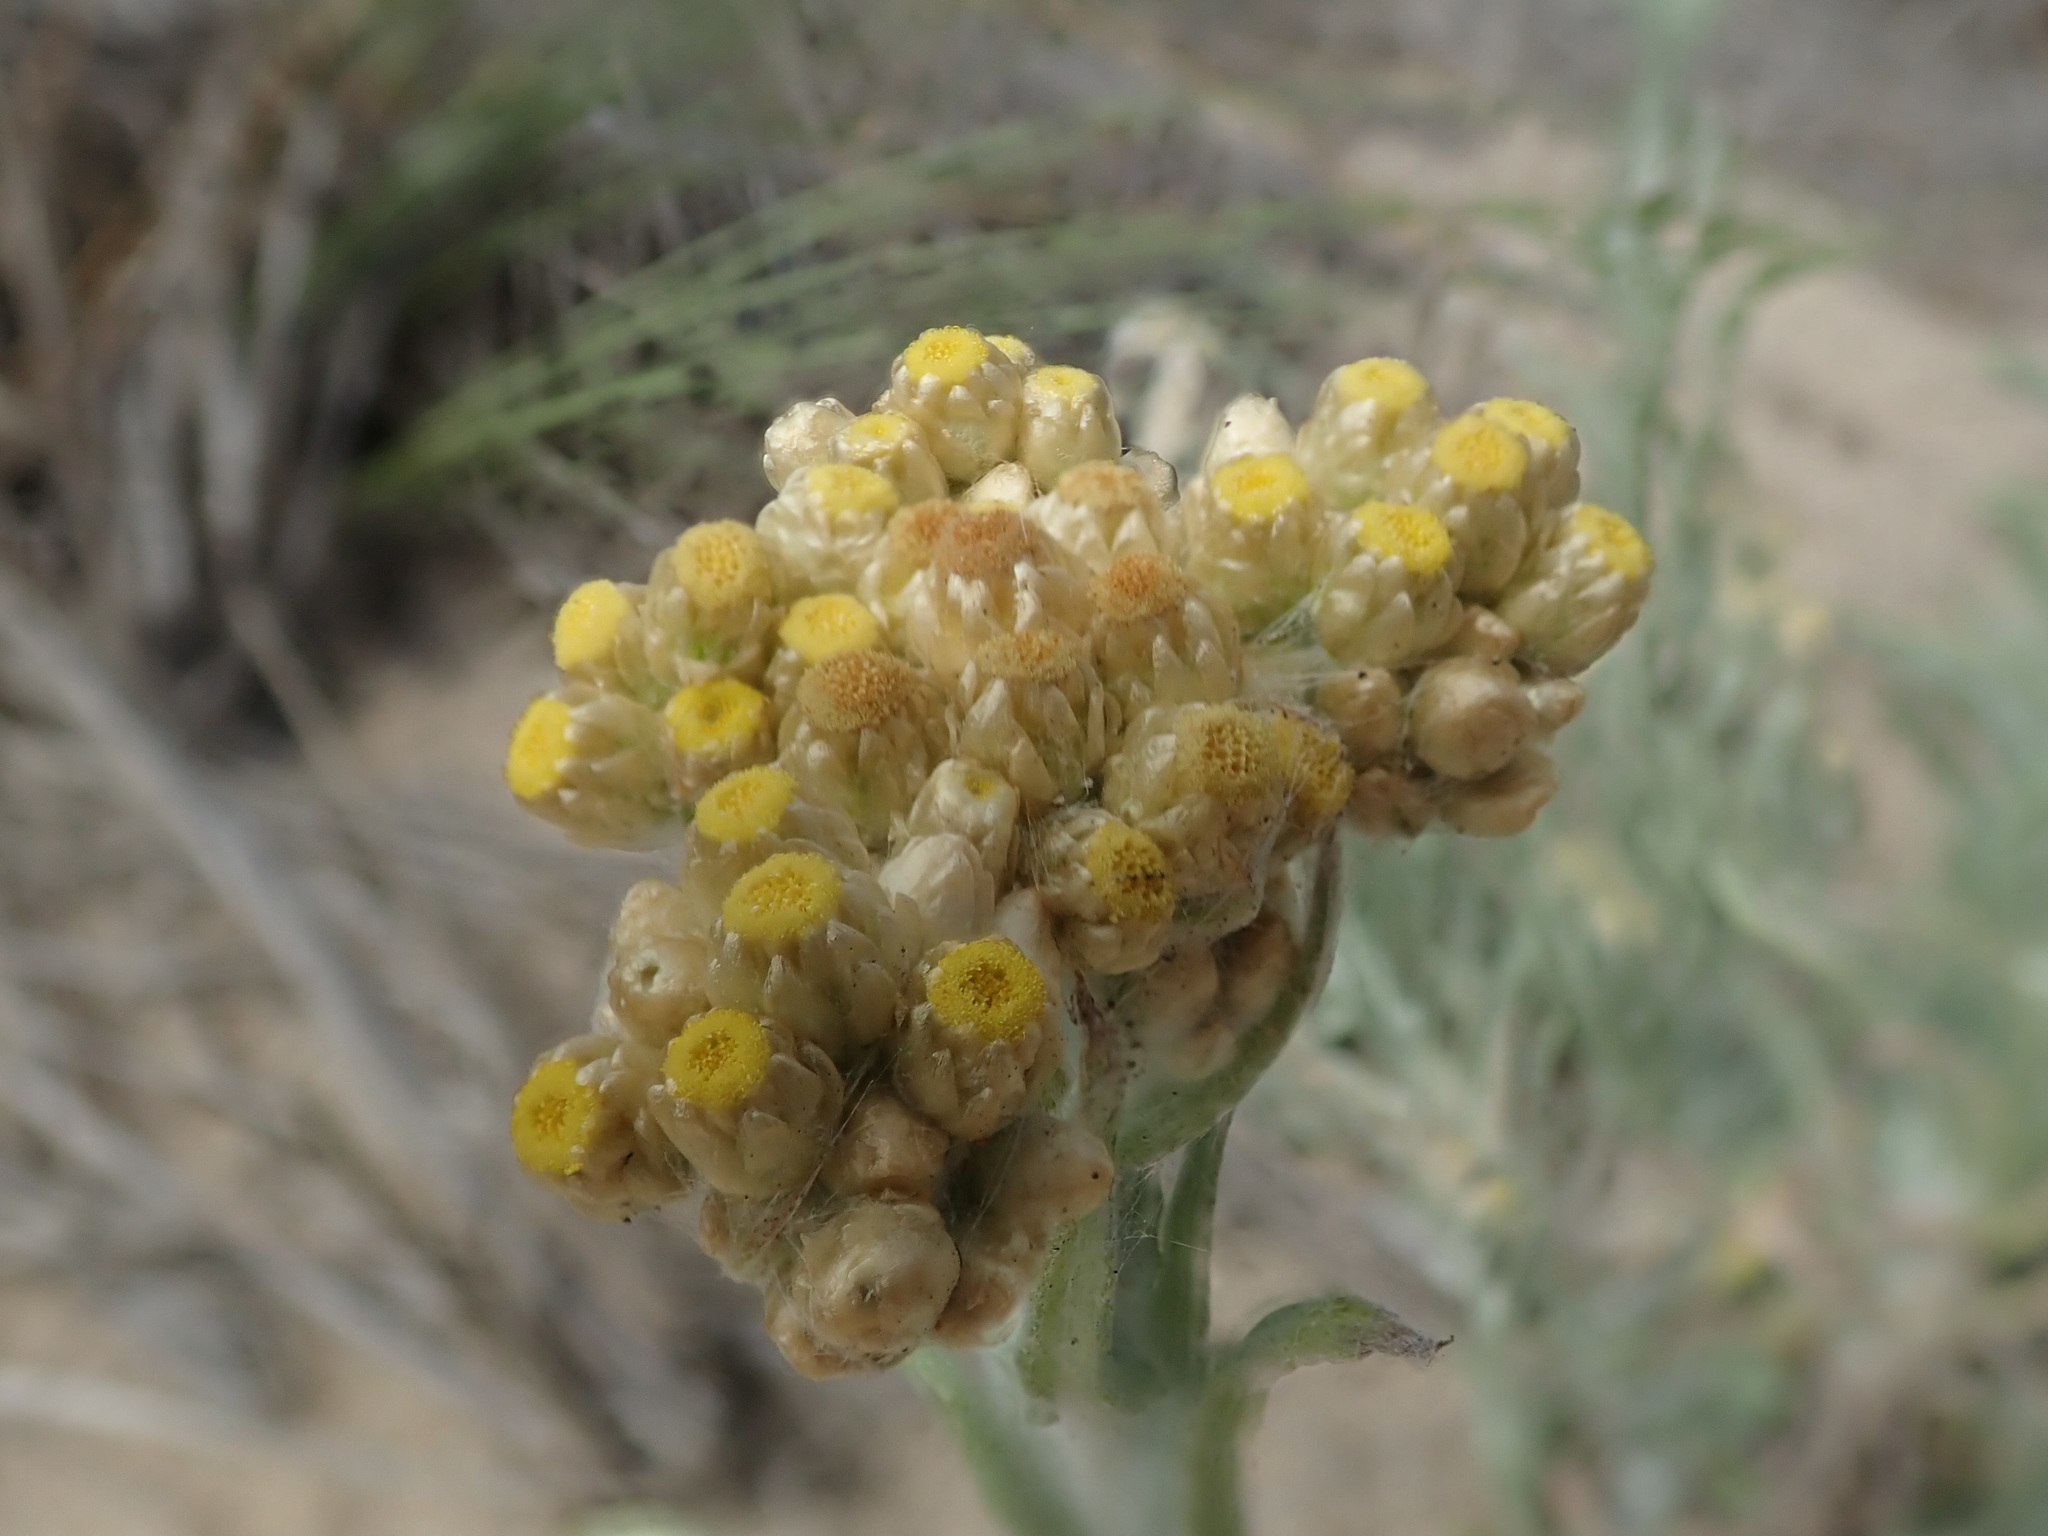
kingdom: Plantae
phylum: Tracheophyta
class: Magnoliopsida
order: Asterales
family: Asteraceae
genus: Pseudognaphalium
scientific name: Pseudognaphalium stramineum
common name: Cotton-batting-plant
